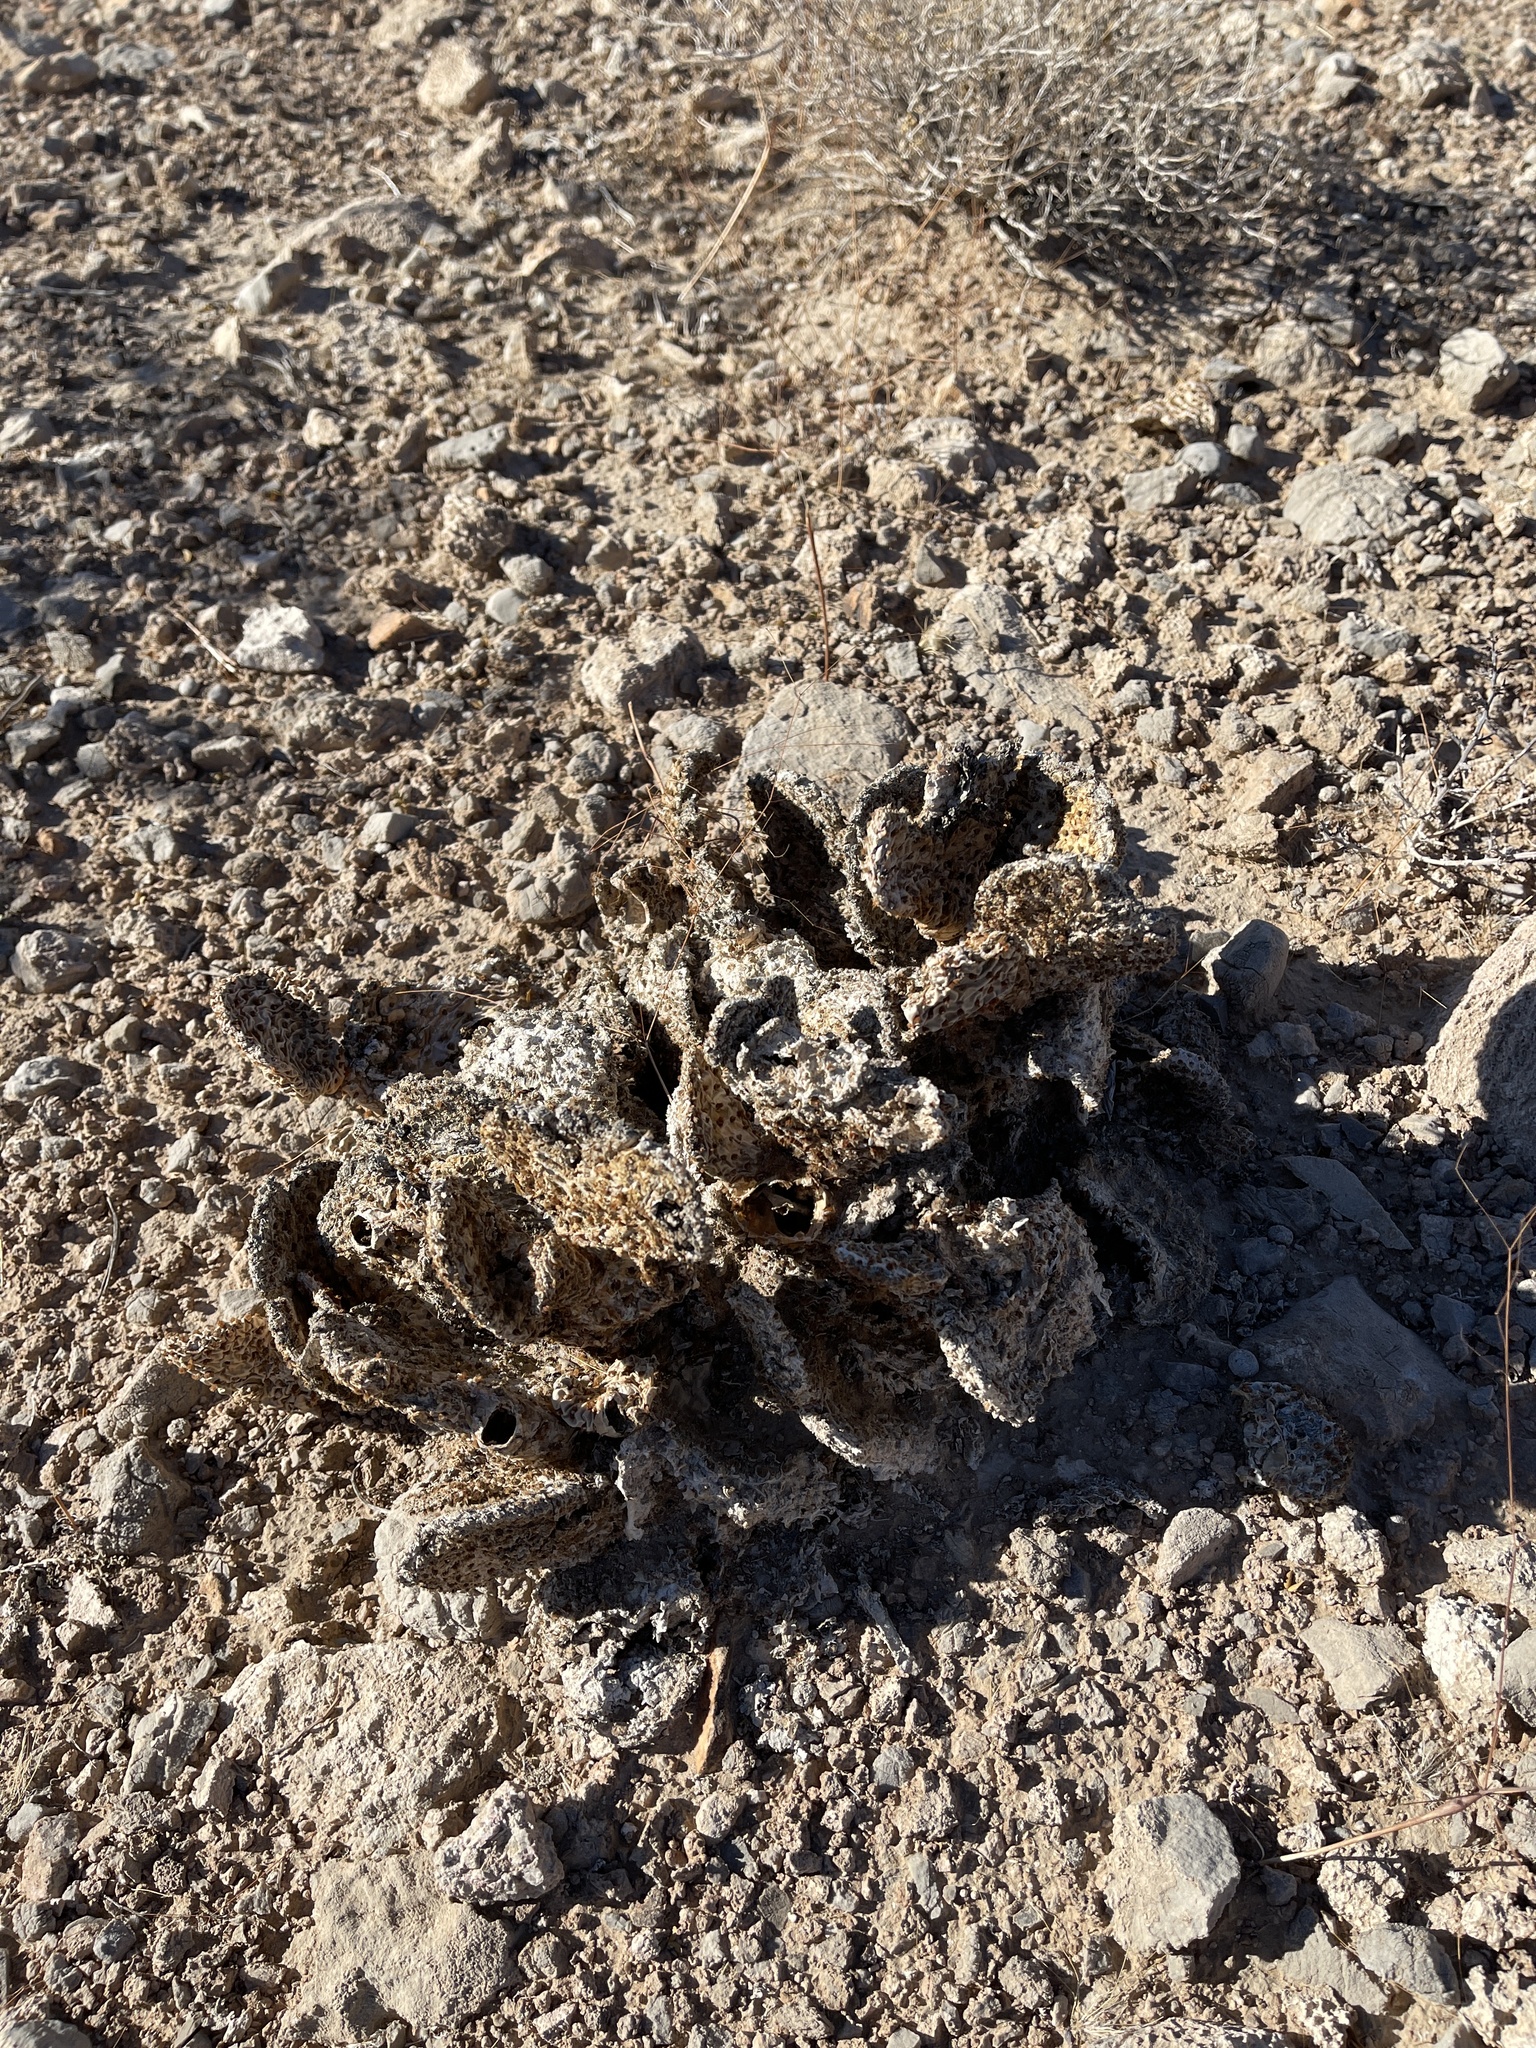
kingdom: Plantae
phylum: Tracheophyta
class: Magnoliopsida
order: Caryophyllales
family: Cactaceae
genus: Opuntia
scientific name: Opuntia basilaris
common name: Beavertail prickly-pear
